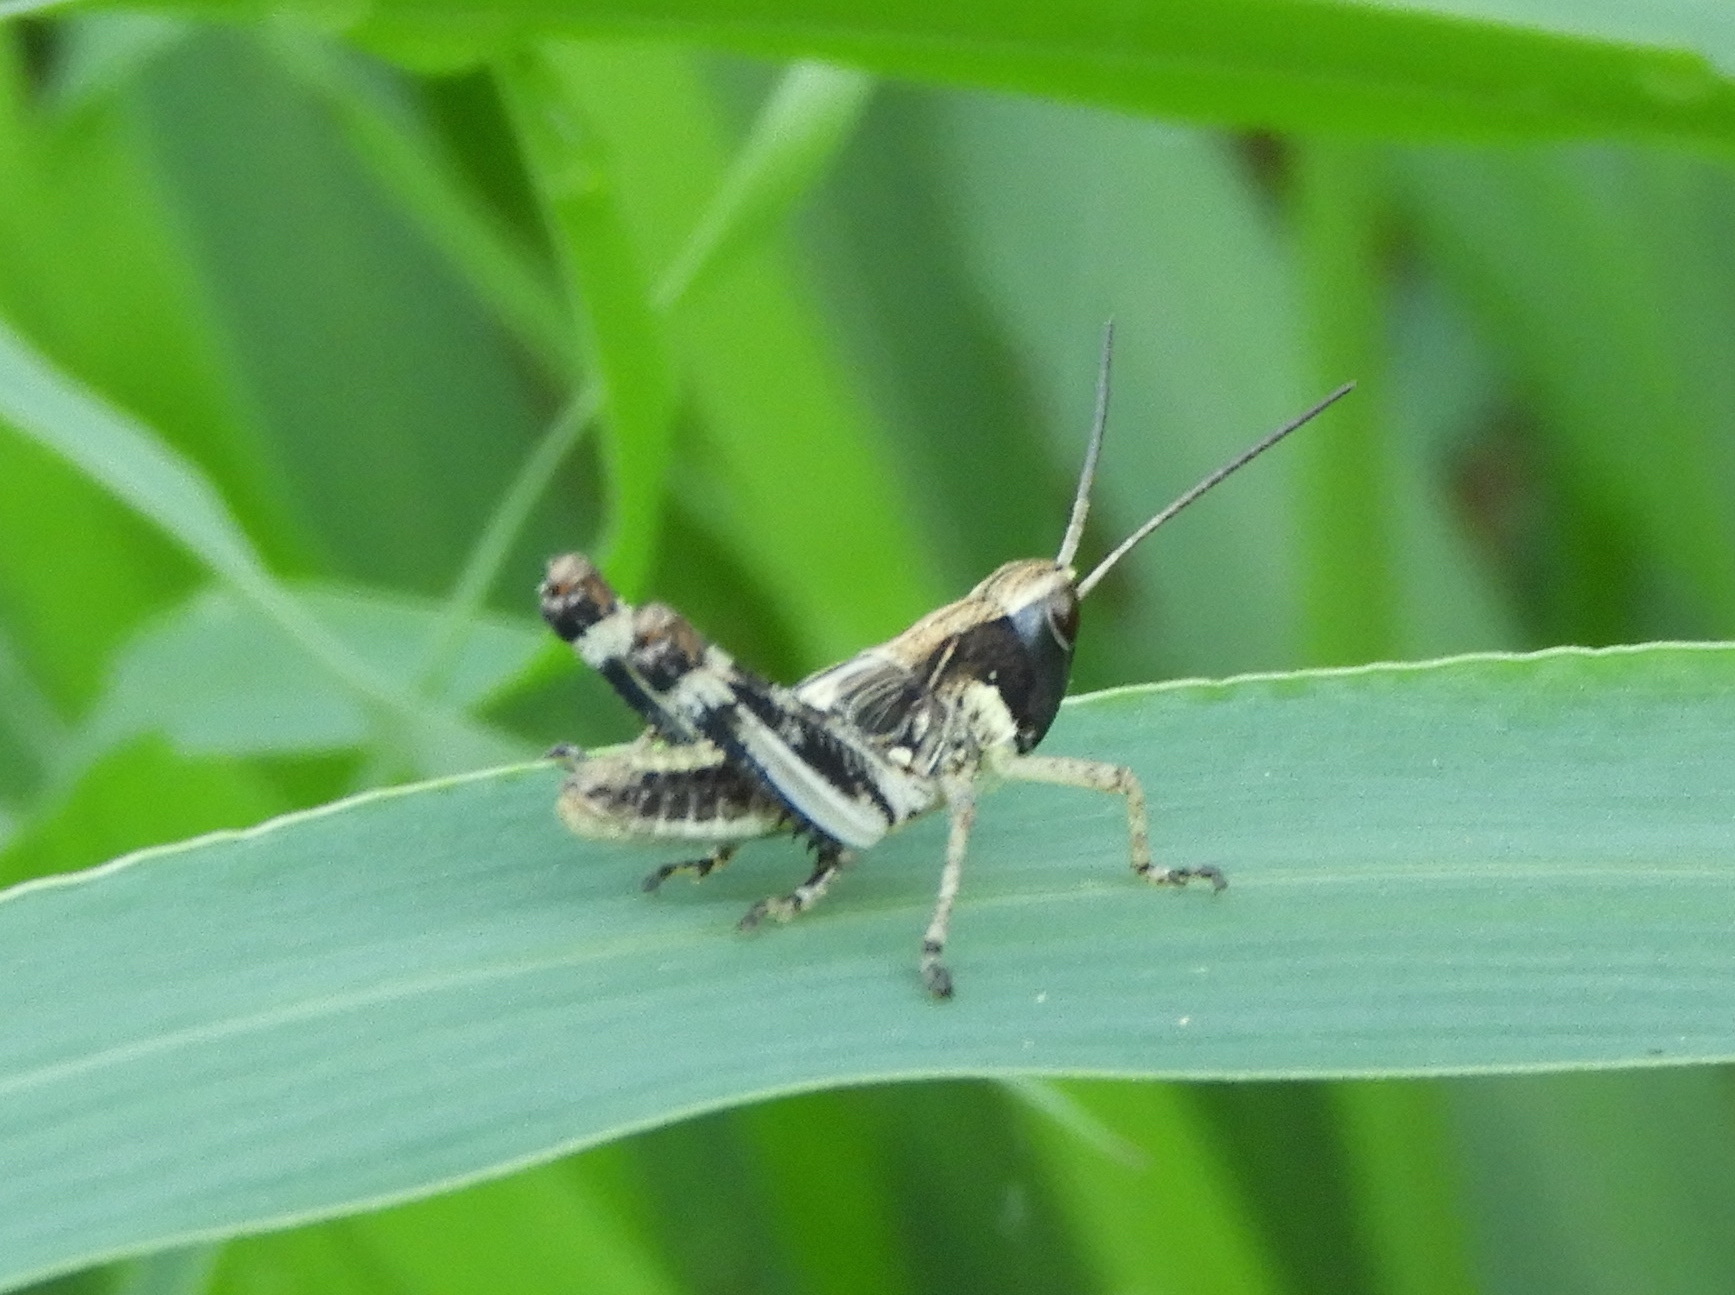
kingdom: Animalia
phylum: Arthropoda
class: Insecta
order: Orthoptera
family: Acrididae
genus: Boopedon
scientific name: Boopedon flaviventris
